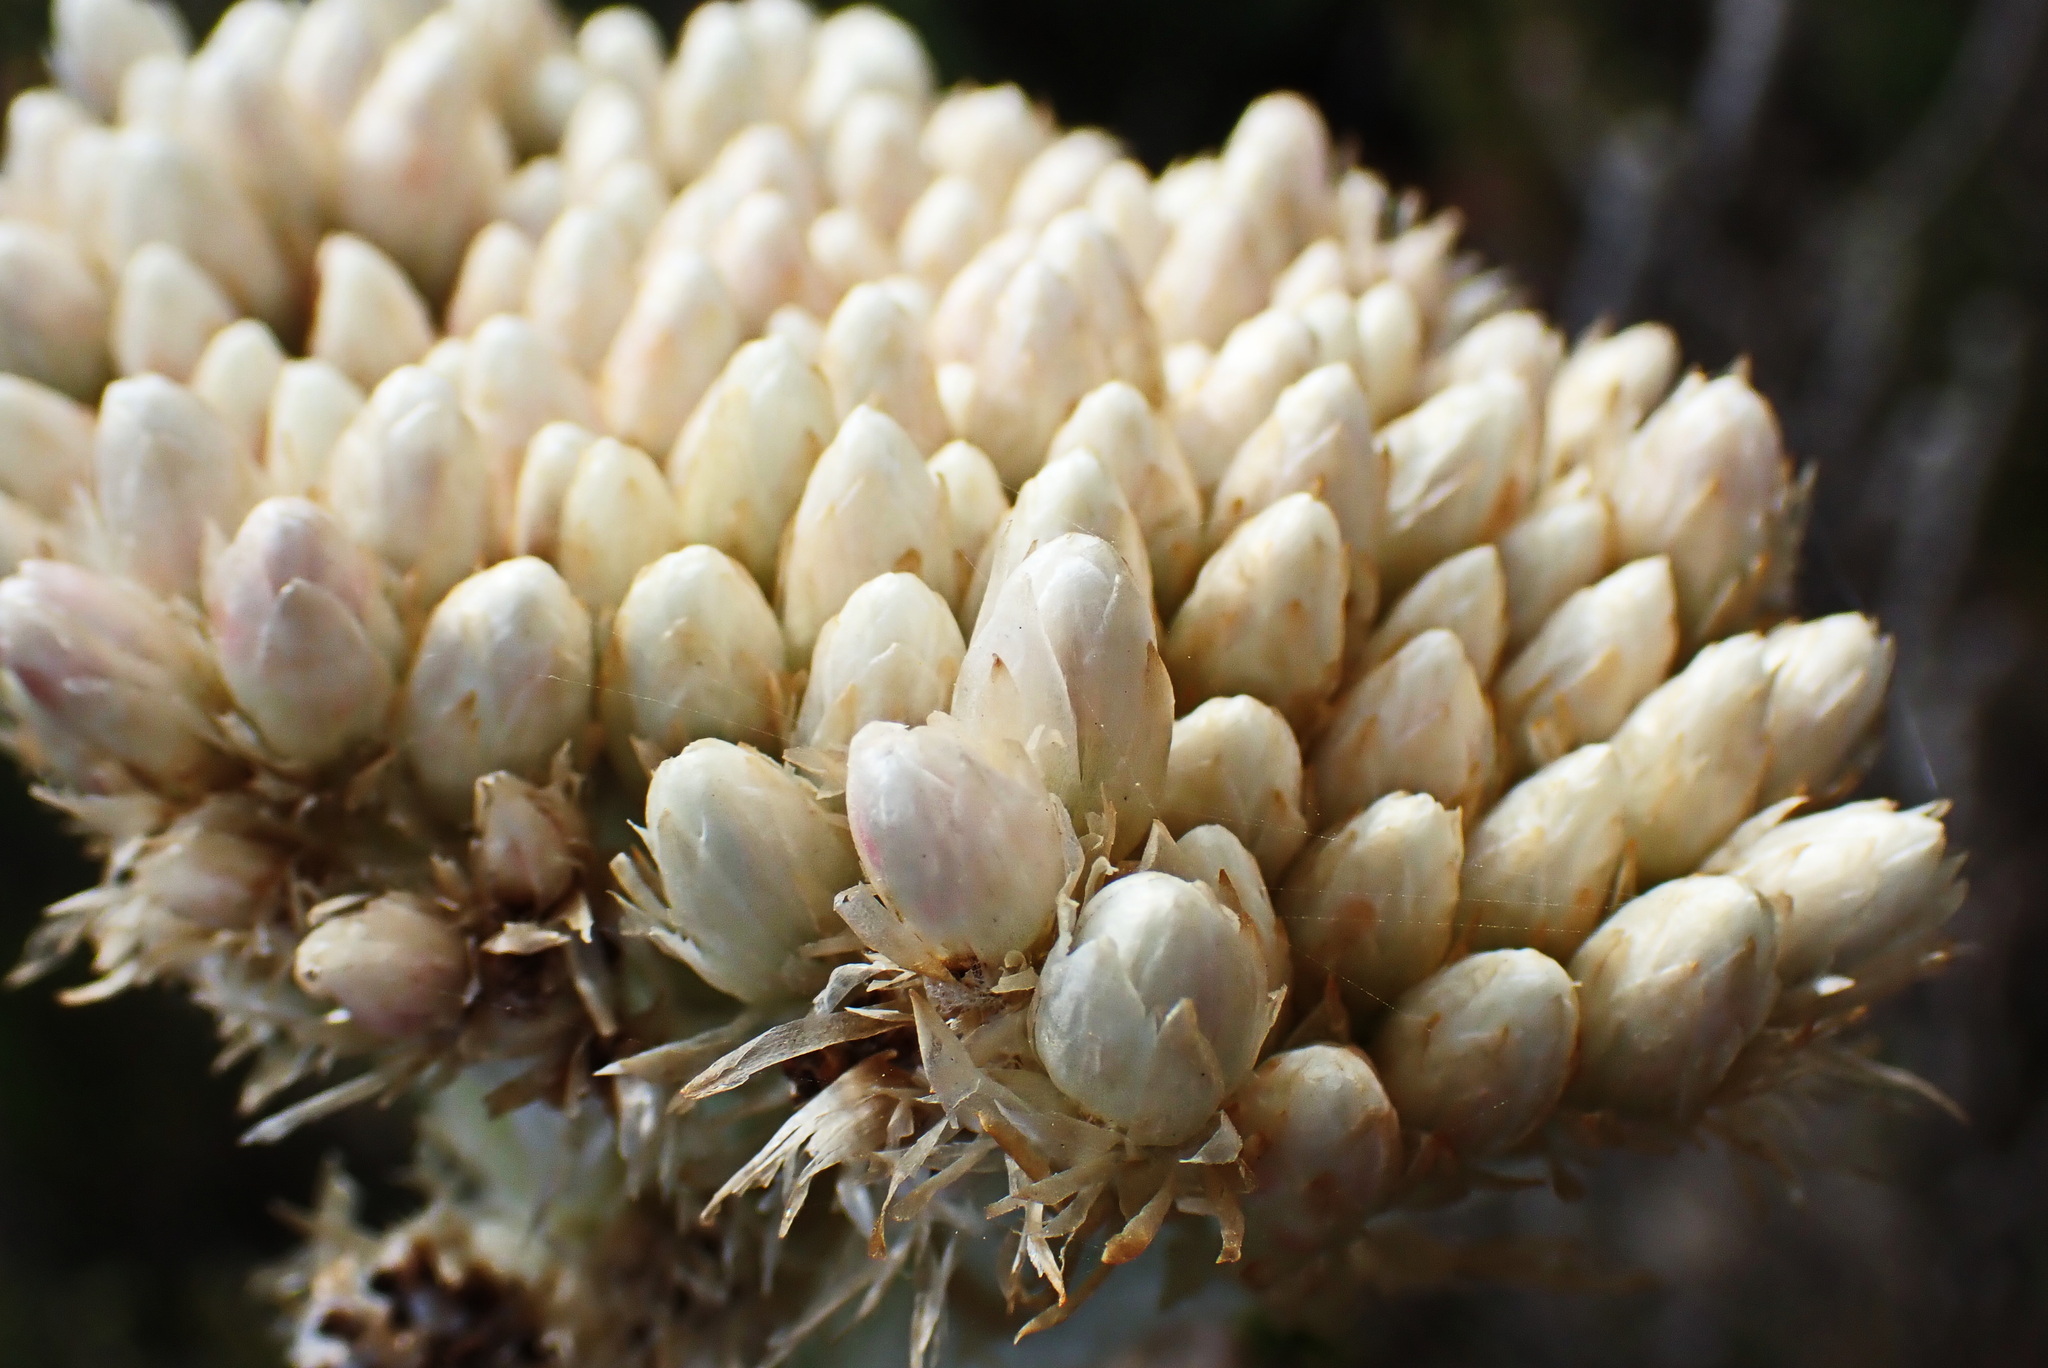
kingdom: Plantae
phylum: Tracheophyta
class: Magnoliopsida
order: Asterales
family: Asteraceae
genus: Syncarpha
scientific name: Syncarpha milleflora
